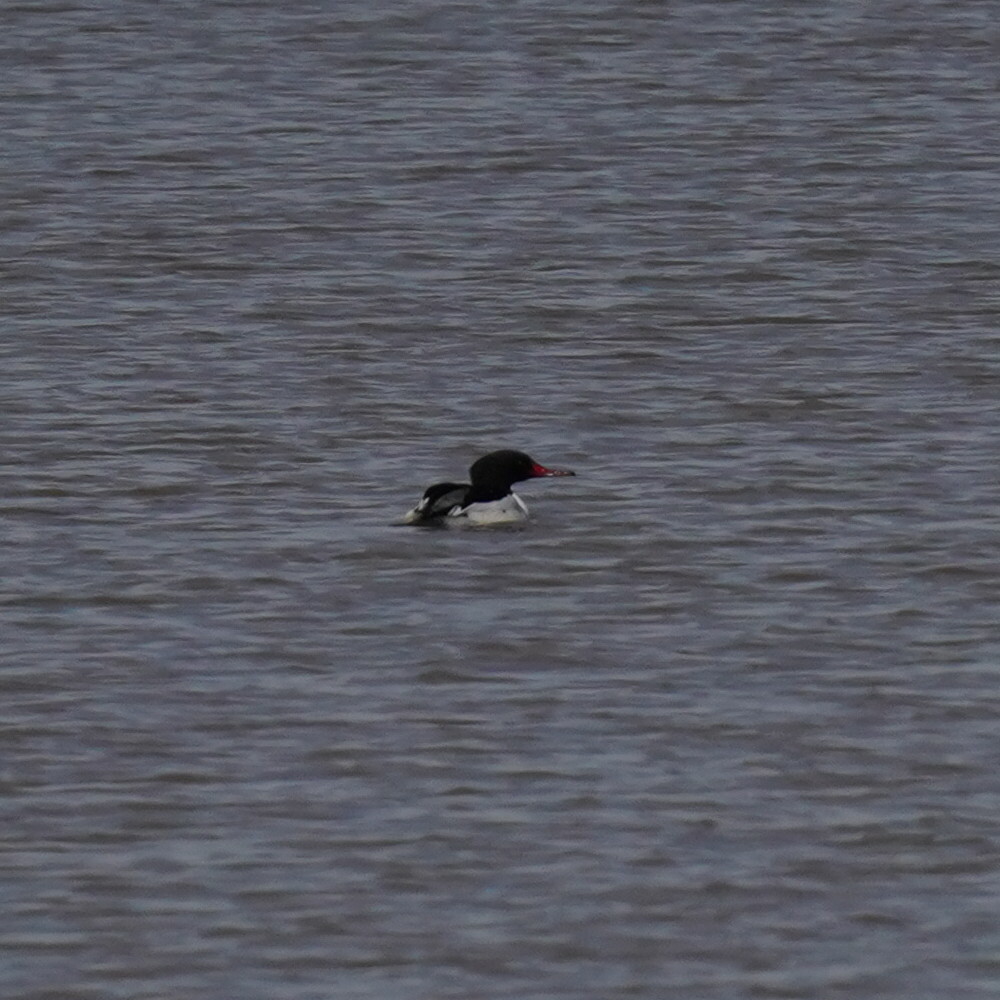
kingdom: Animalia
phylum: Chordata
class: Aves
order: Anseriformes
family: Anatidae
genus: Mergus
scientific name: Mergus merganser
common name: Common merganser
